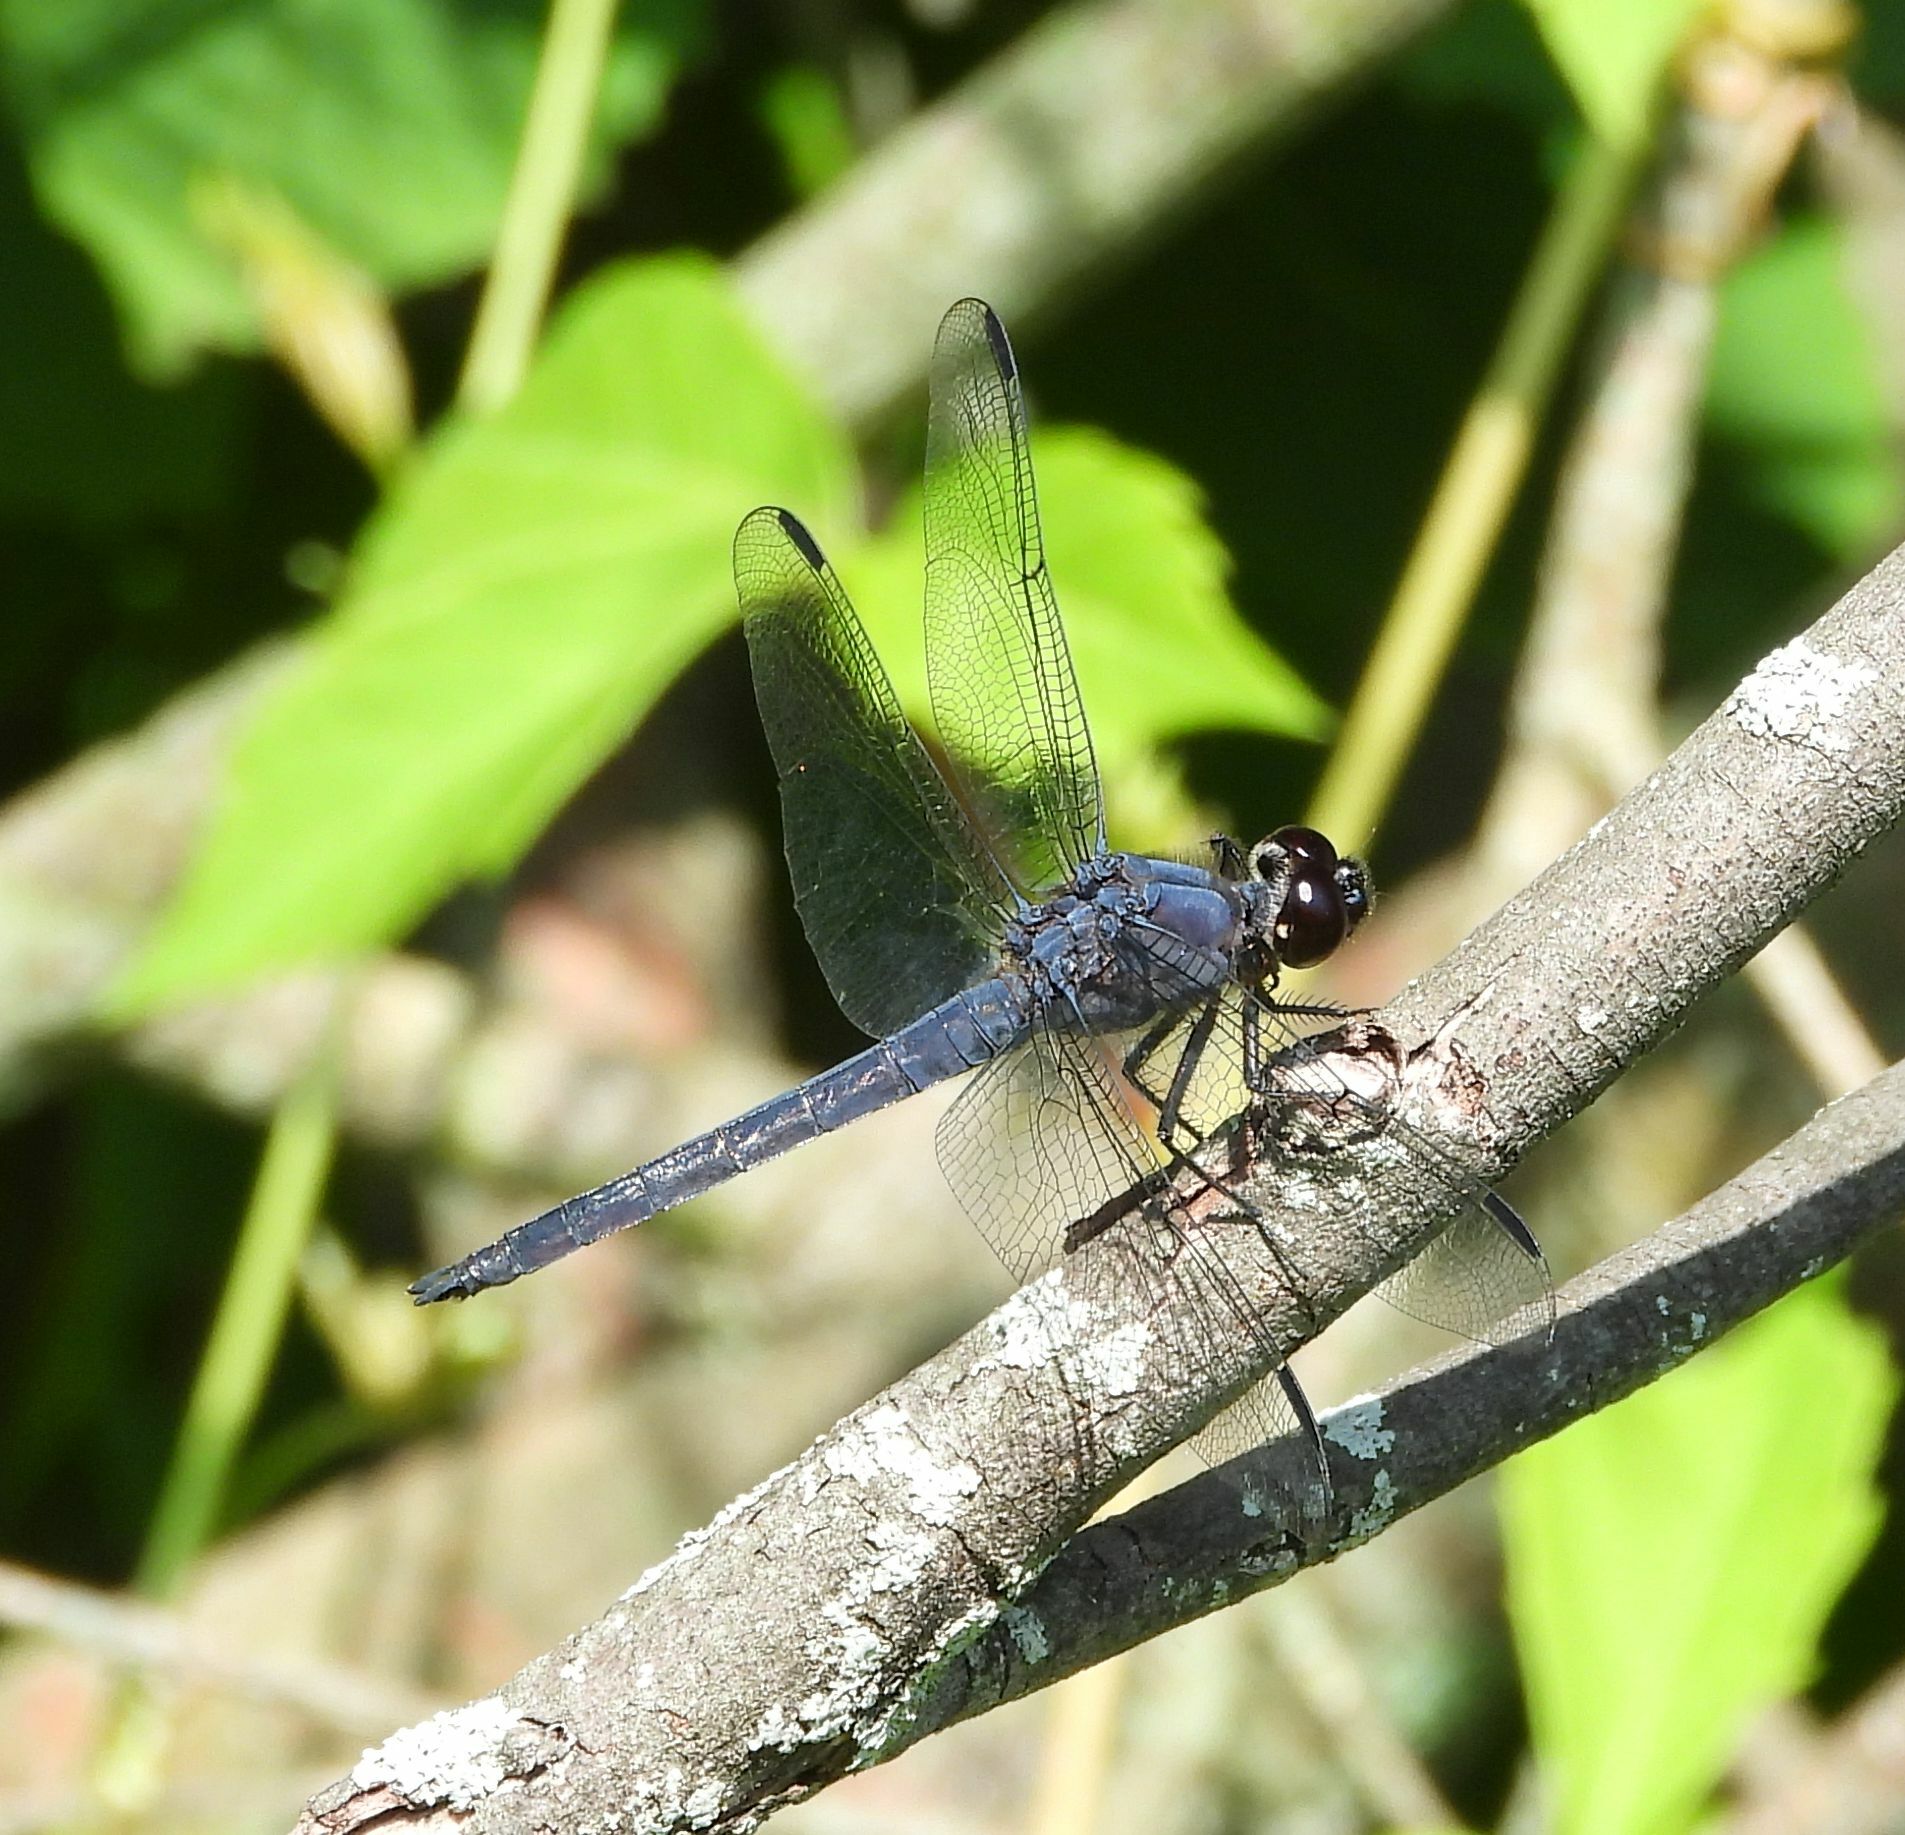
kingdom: Animalia
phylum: Arthropoda
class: Insecta
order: Odonata
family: Libellulidae
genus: Libellula
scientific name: Libellula incesta
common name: Slaty skimmer
